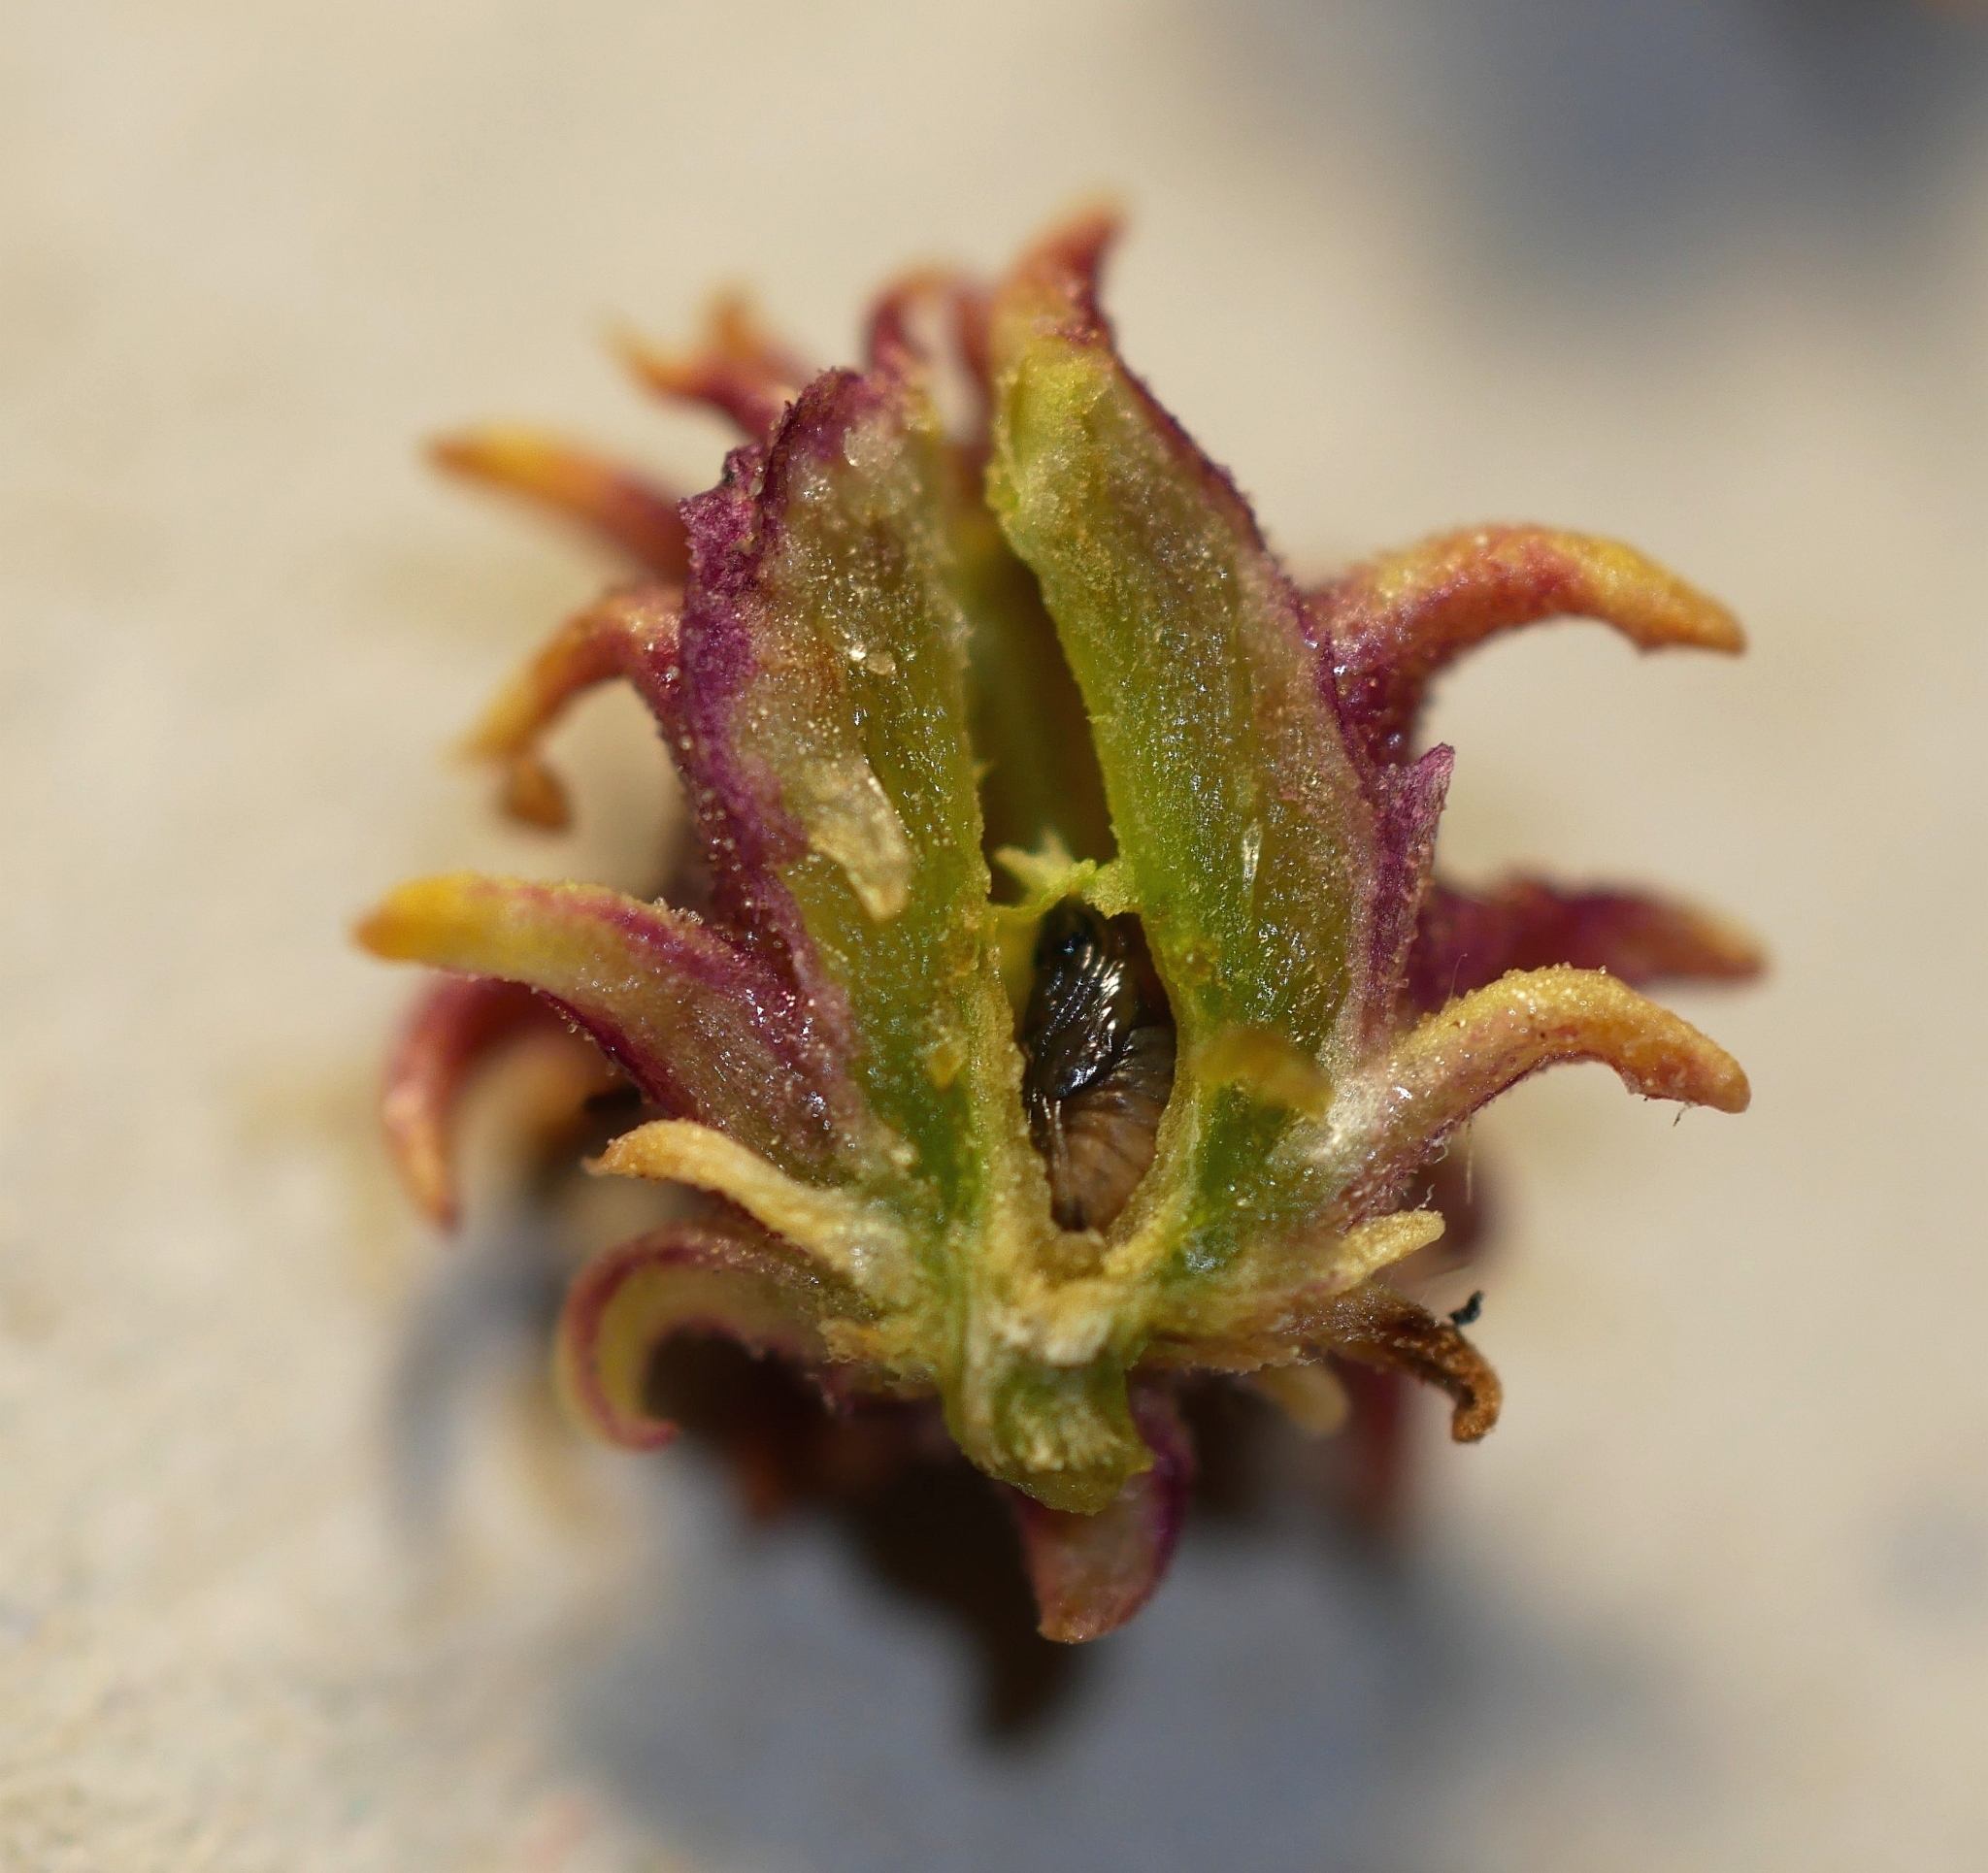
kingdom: Animalia
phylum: Arthropoda
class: Insecta
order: Diptera
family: Cecidomyiidae
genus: Rhopalomyia
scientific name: Rhopalomyia
